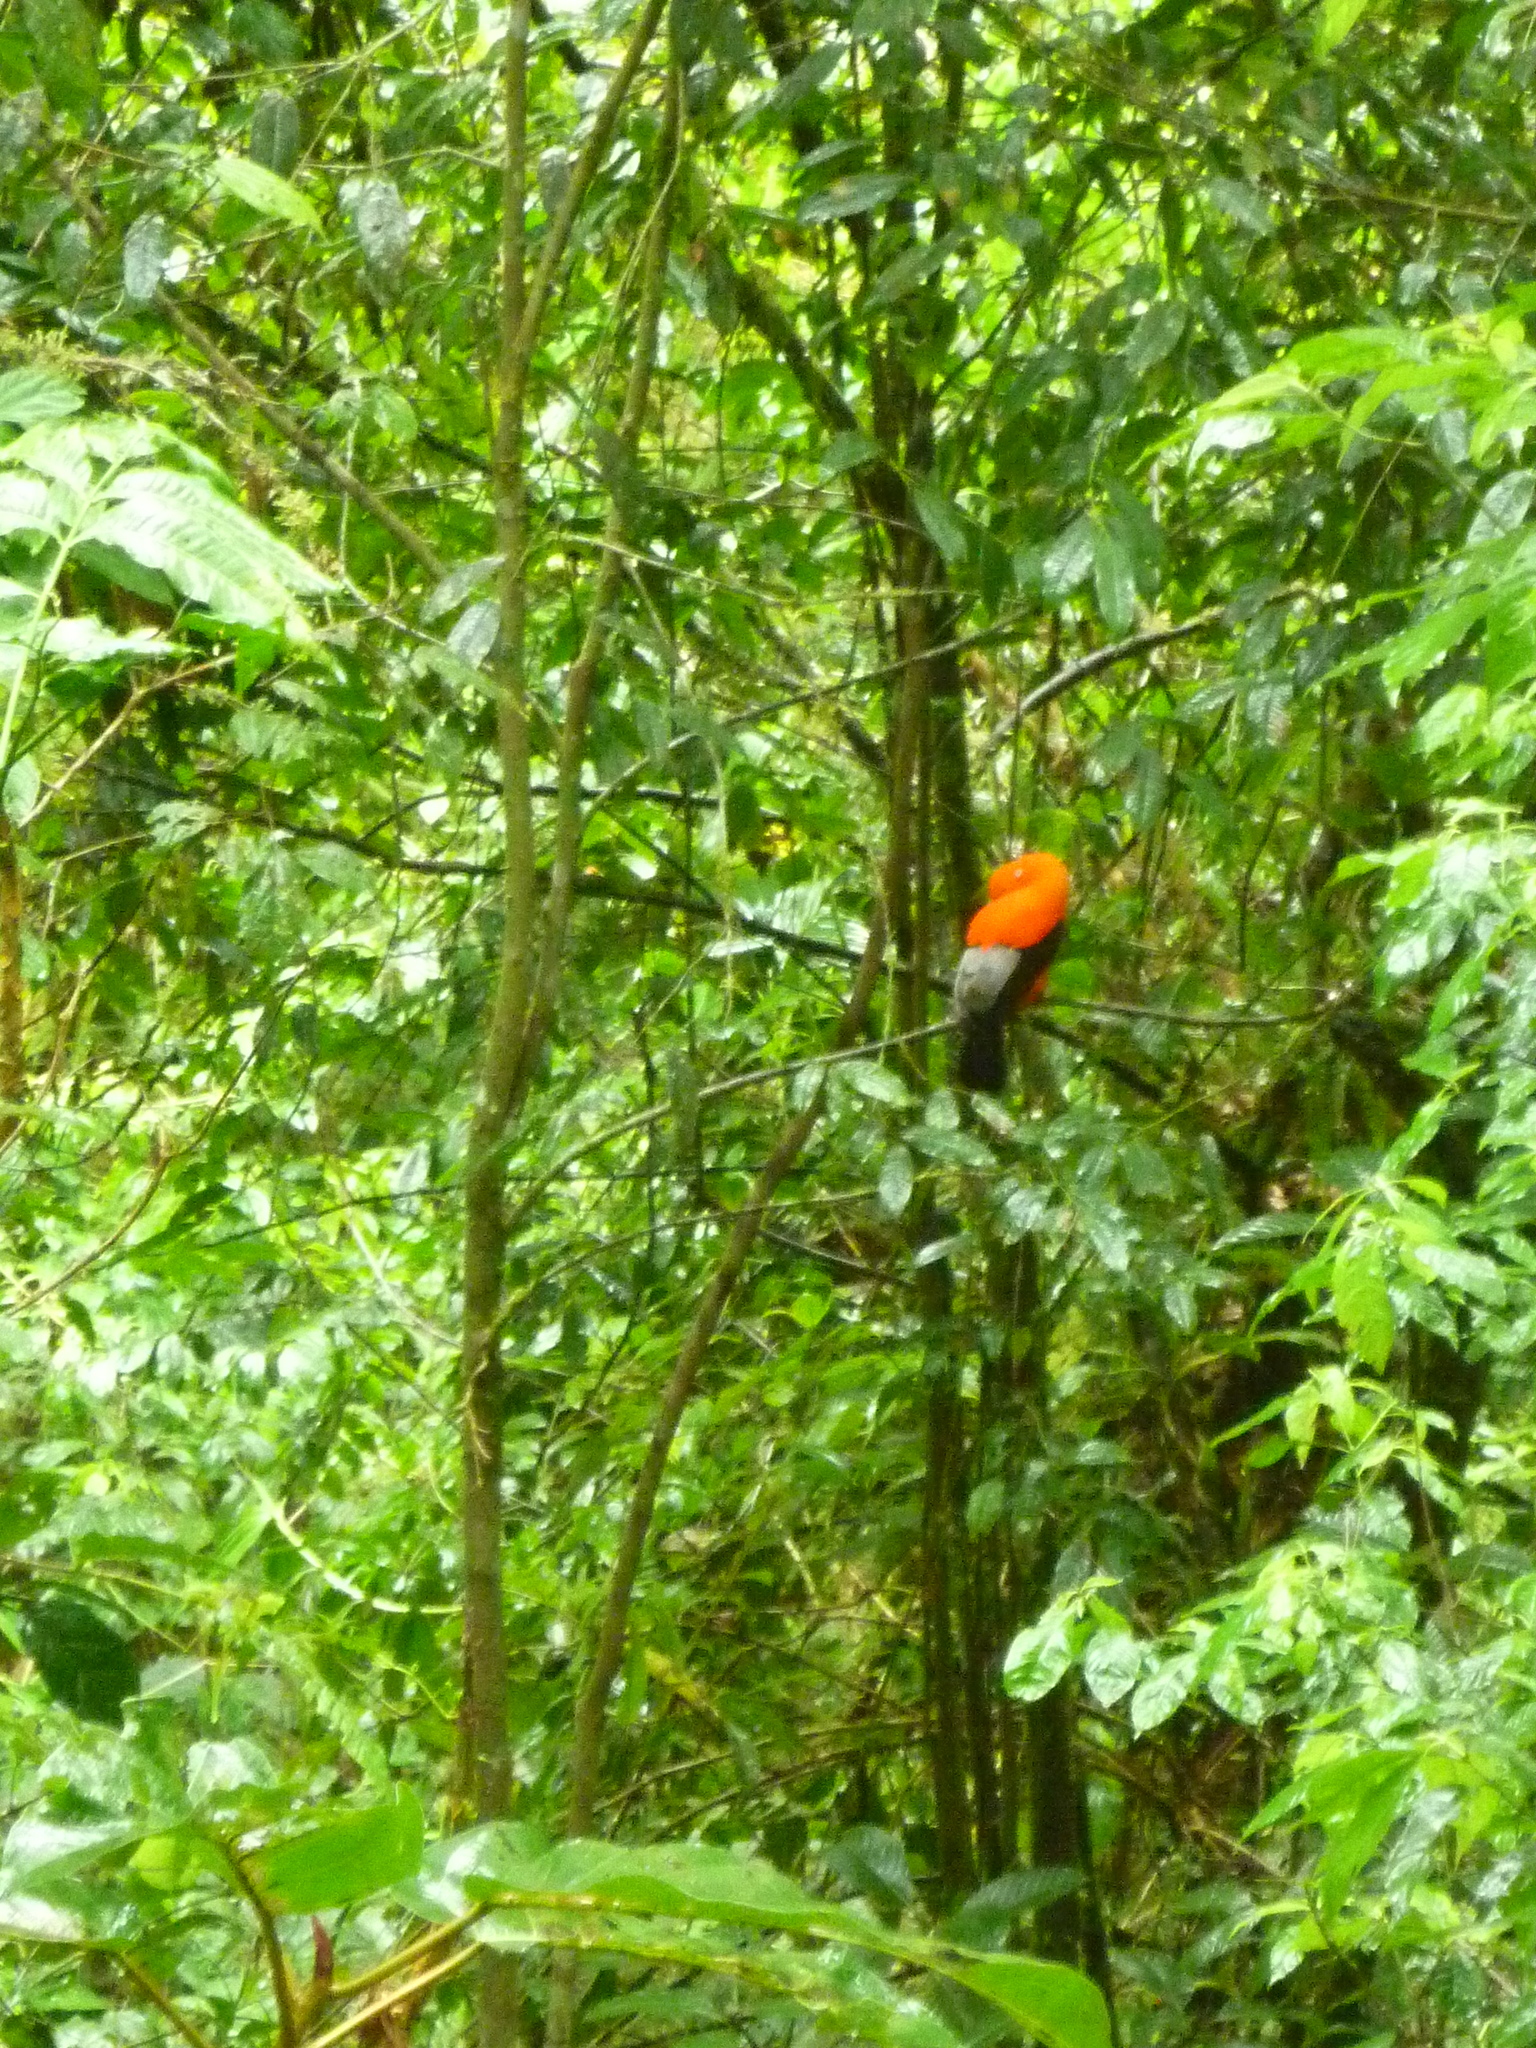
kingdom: Animalia
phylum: Chordata
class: Aves
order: Passeriformes
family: Cotingidae
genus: Rupicola
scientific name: Rupicola peruvianus
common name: Andean cock-of-the-rock
